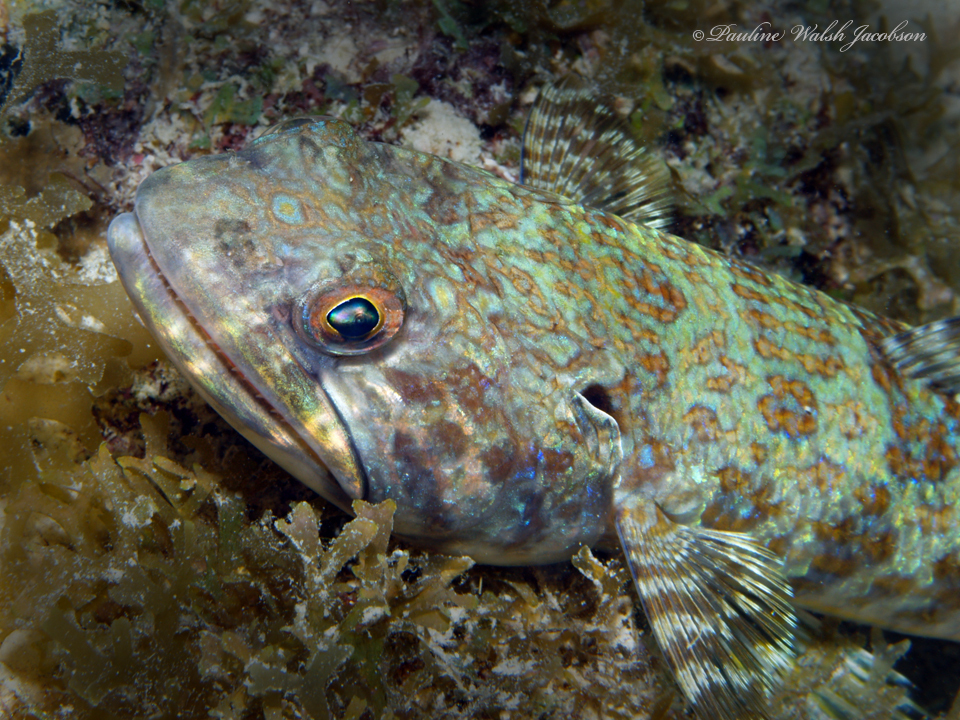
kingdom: Animalia
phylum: Chordata
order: Aulopiformes
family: Synodontidae
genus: Synodus
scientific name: Synodus intermedius
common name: Sand diver
